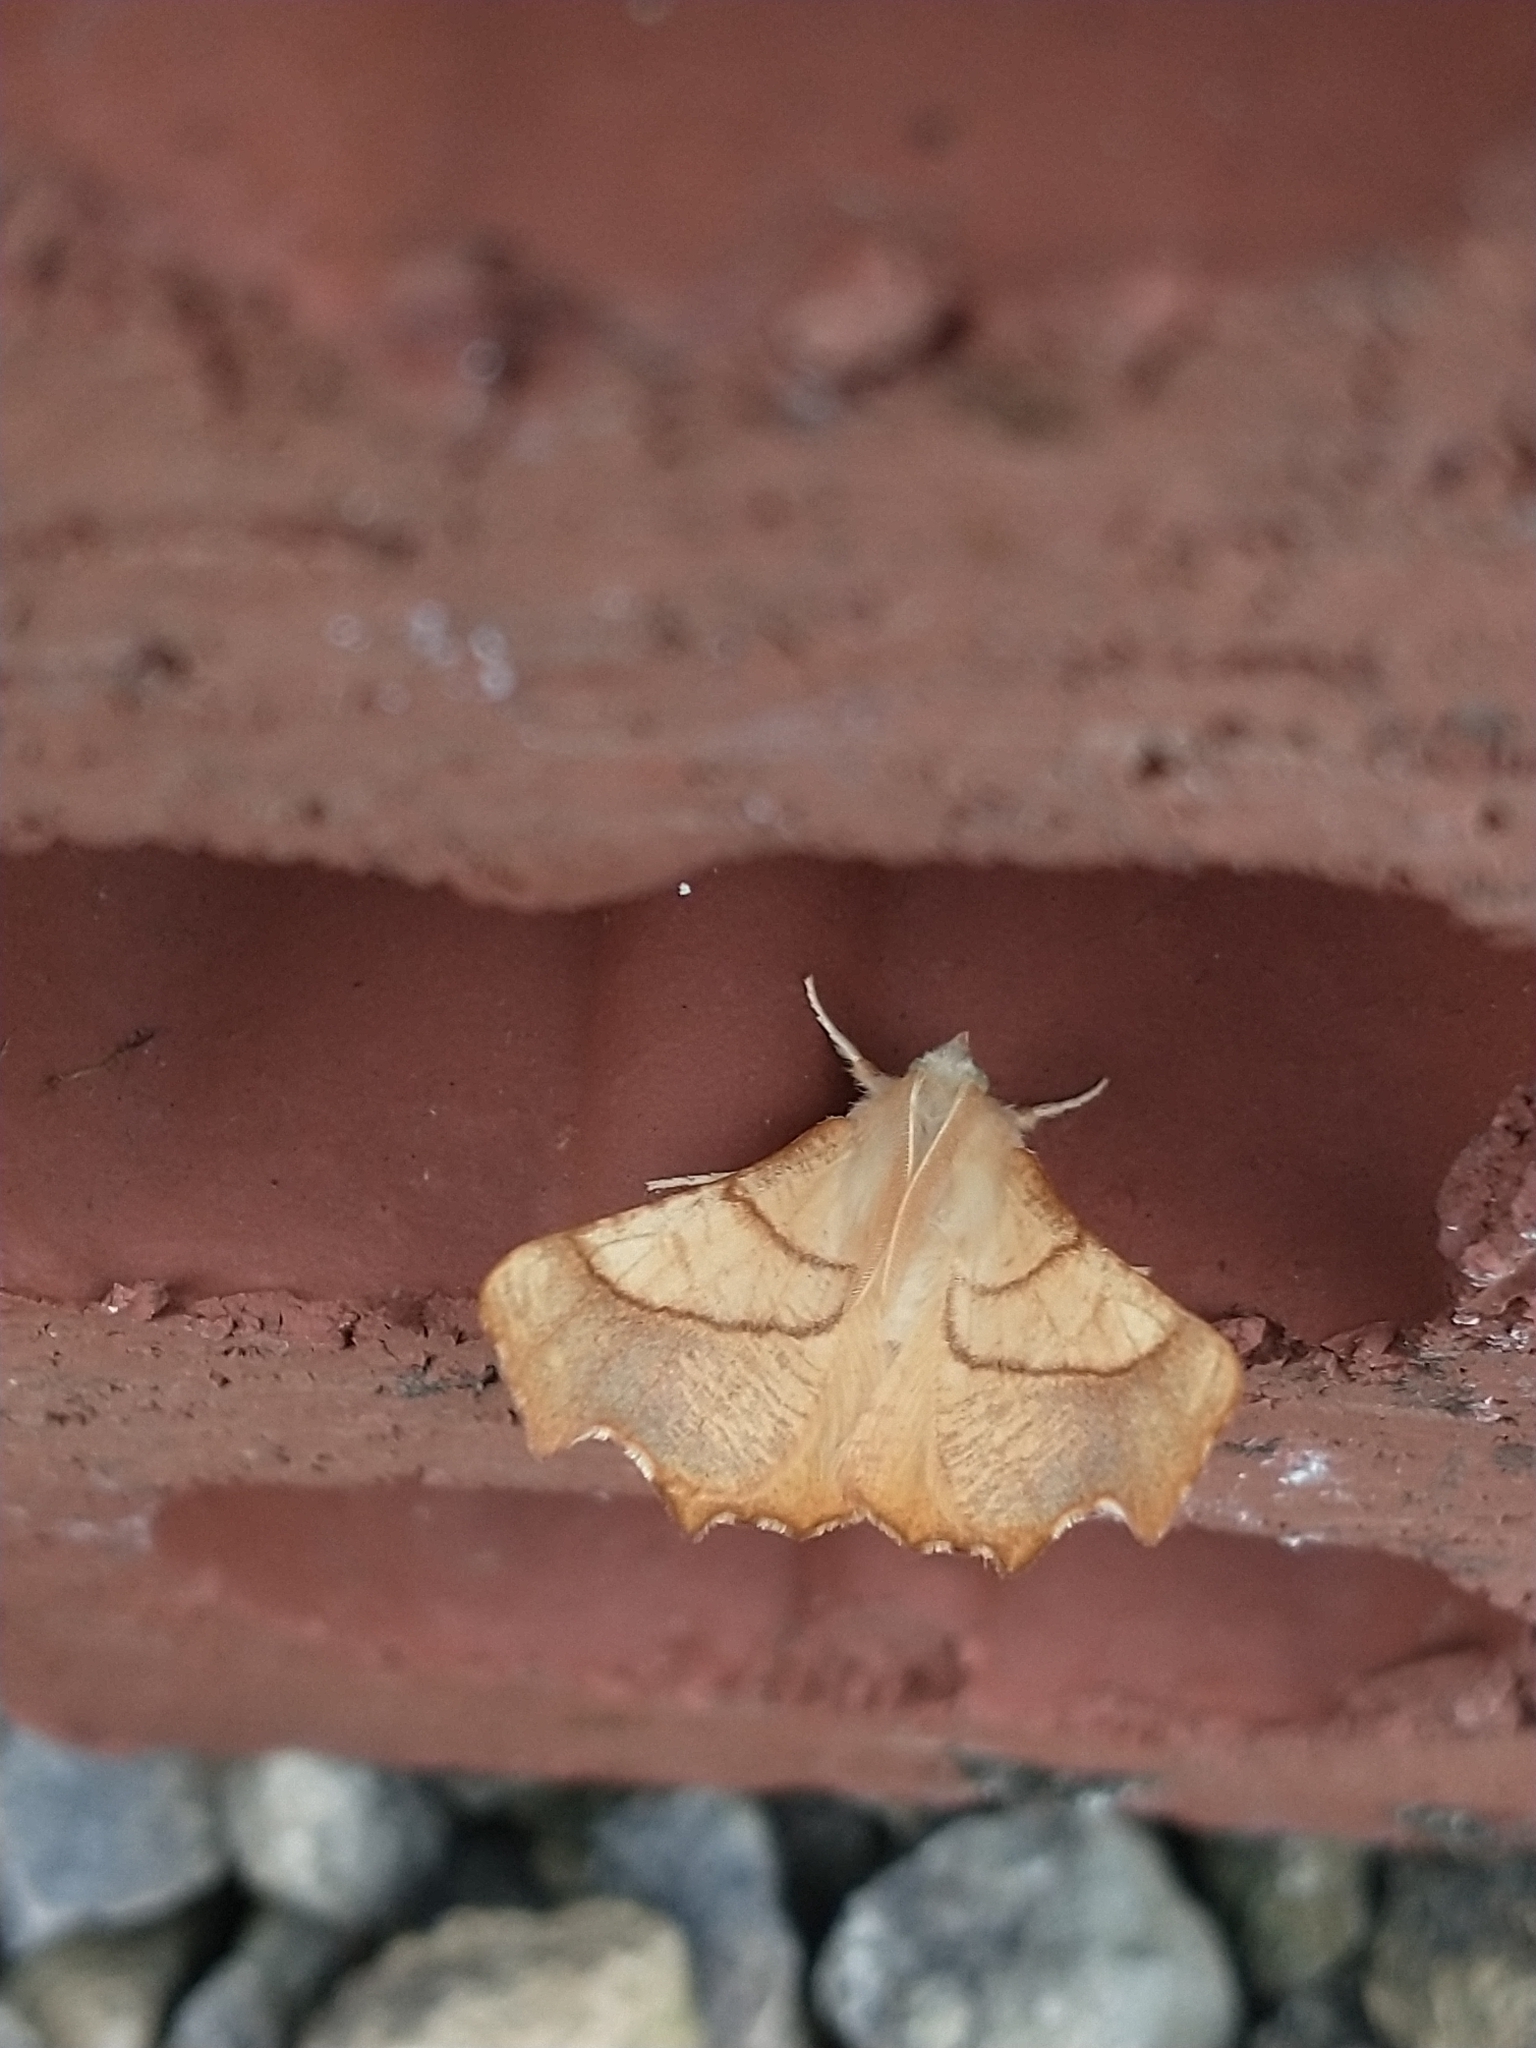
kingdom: Animalia
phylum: Arthropoda
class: Insecta
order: Lepidoptera
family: Geometridae
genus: Ennomos
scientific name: Ennomos fuscantaria
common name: Dusky thorn
